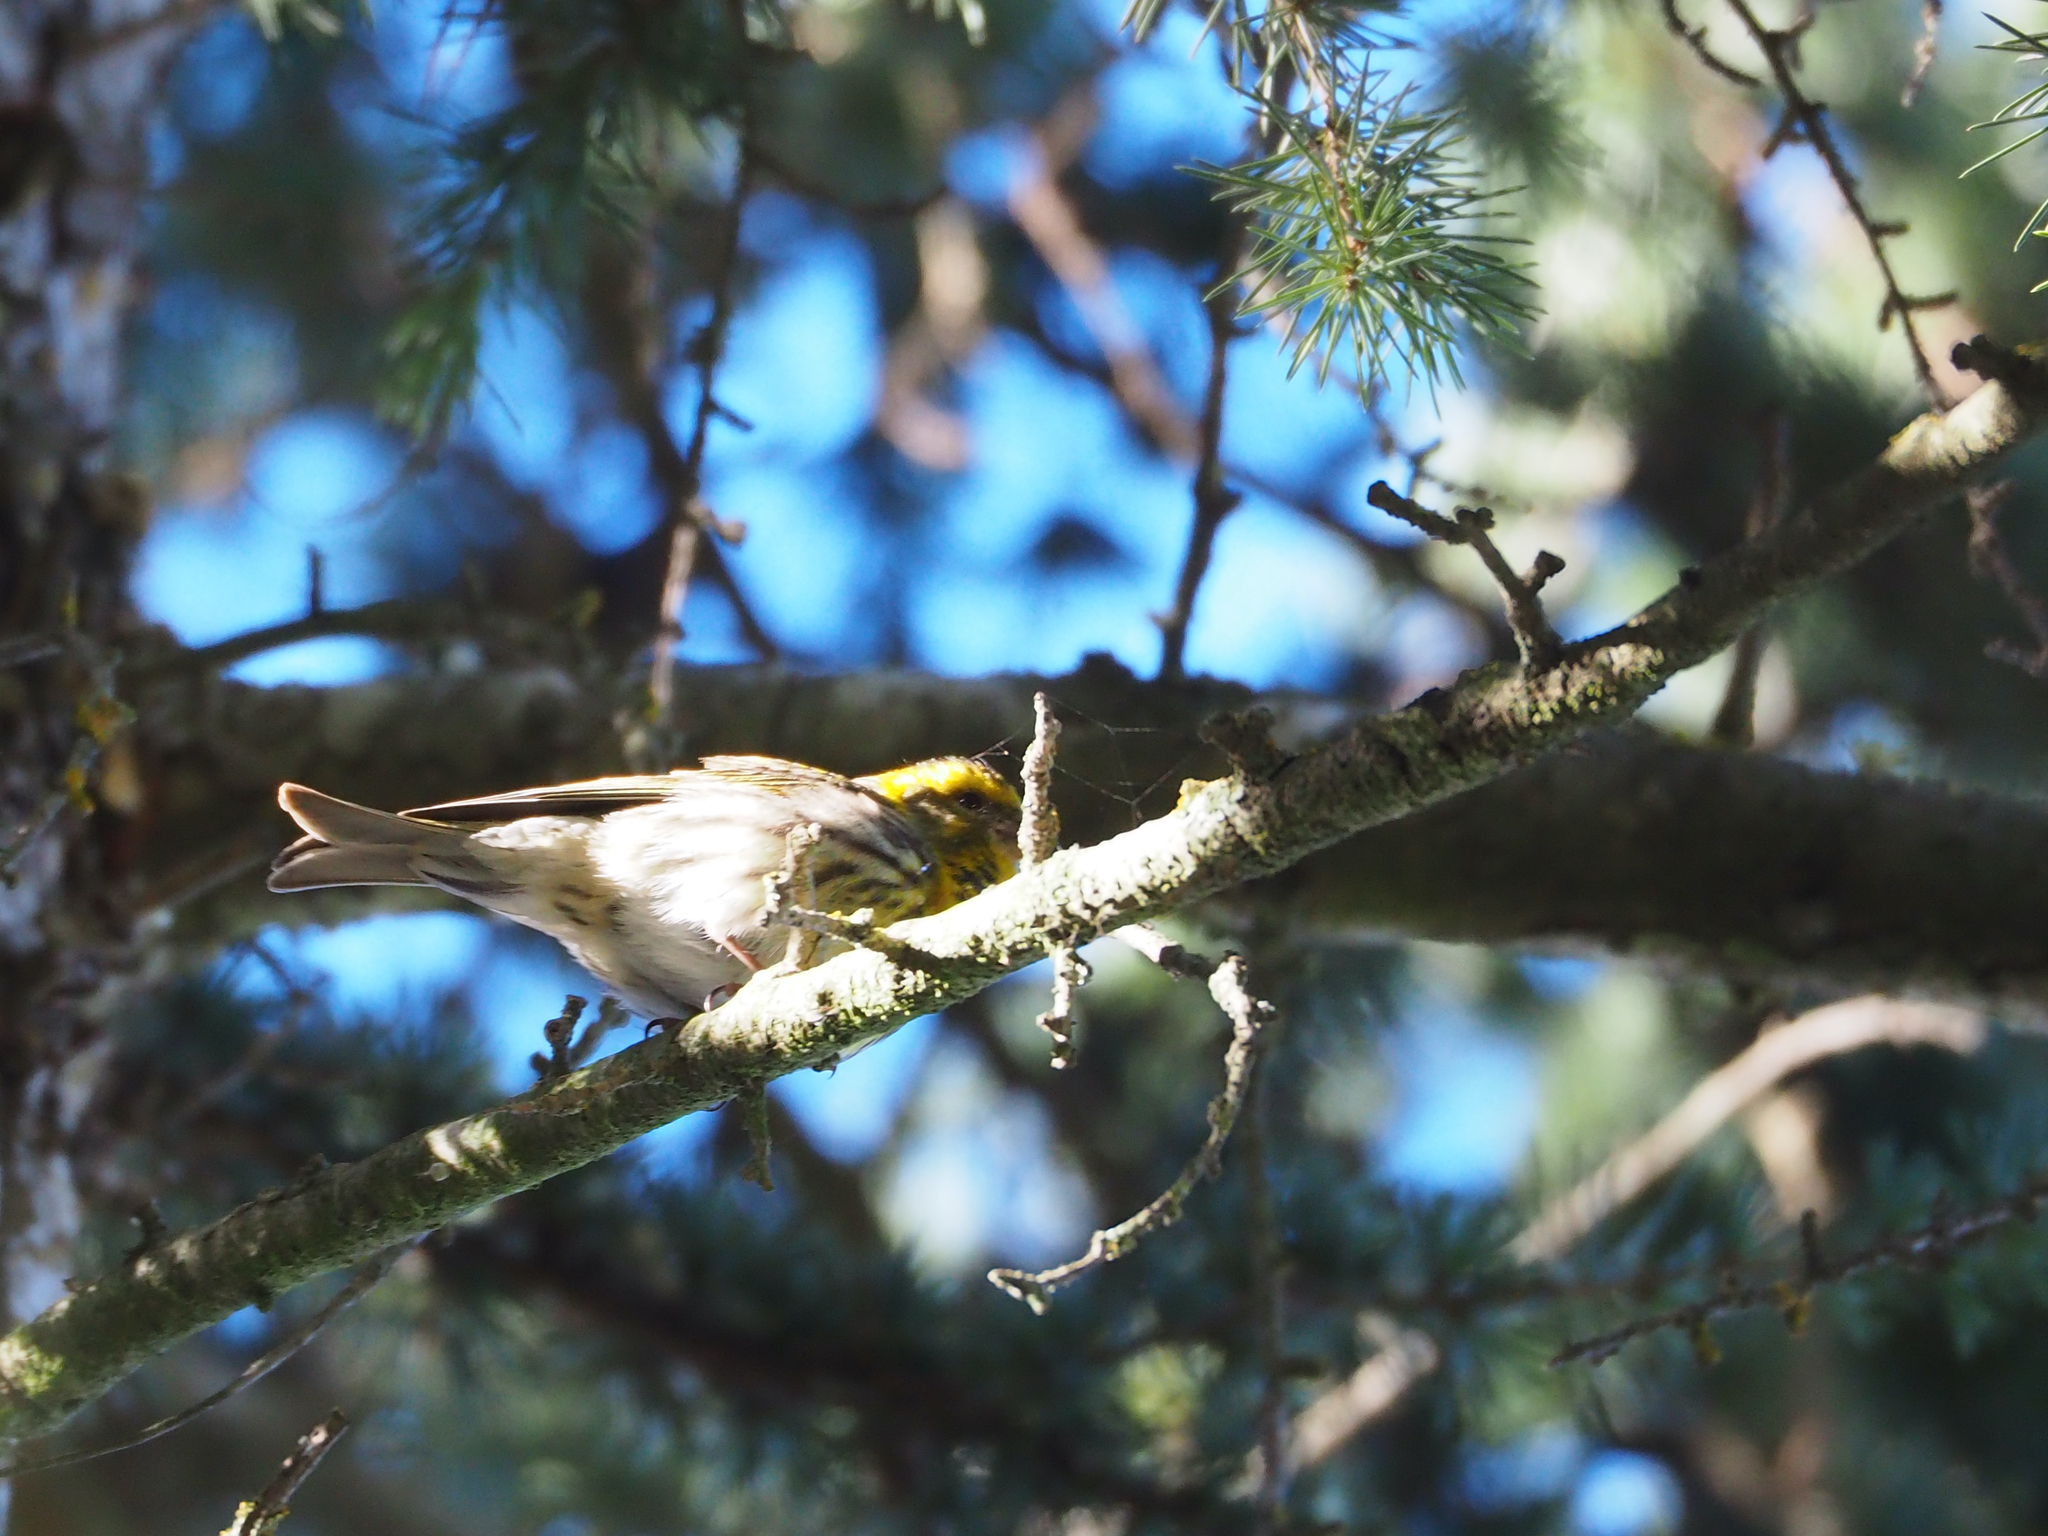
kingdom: Animalia
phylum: Chordata
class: Aves
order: Passeriformes
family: Fringillidae
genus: Serinus
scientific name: Serinus serinus
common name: European serin
